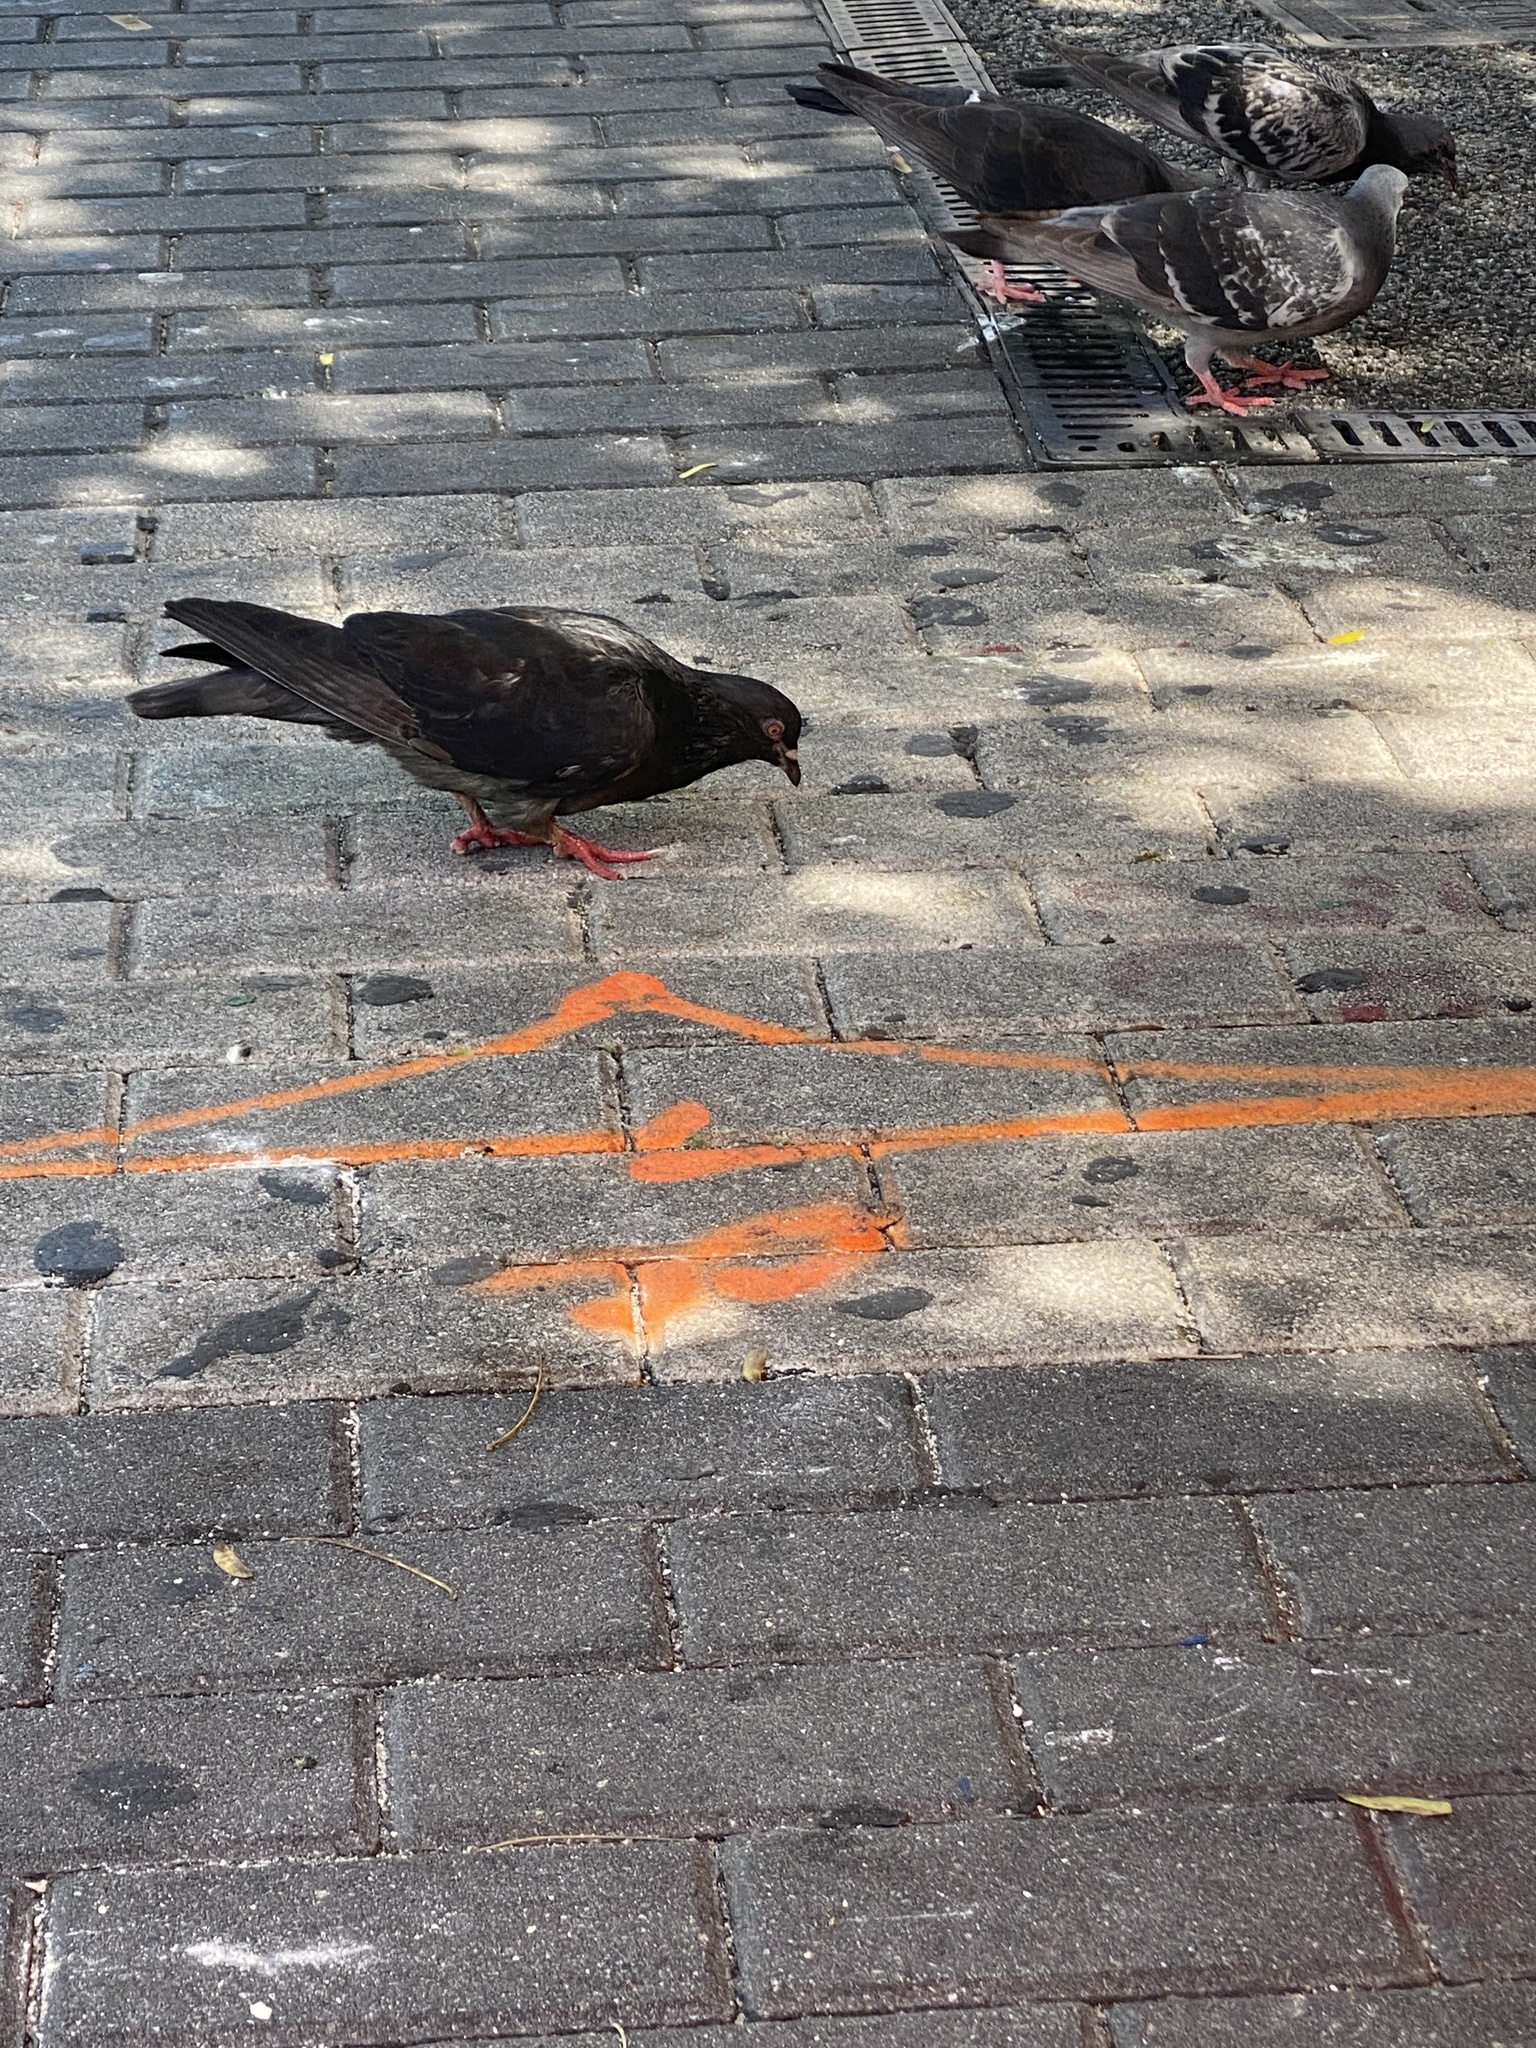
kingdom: Animalia
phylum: Chordata
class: Aves
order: Columbiformes
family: Columbidae
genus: Columba
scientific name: Columba livia
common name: Rock pigeon
